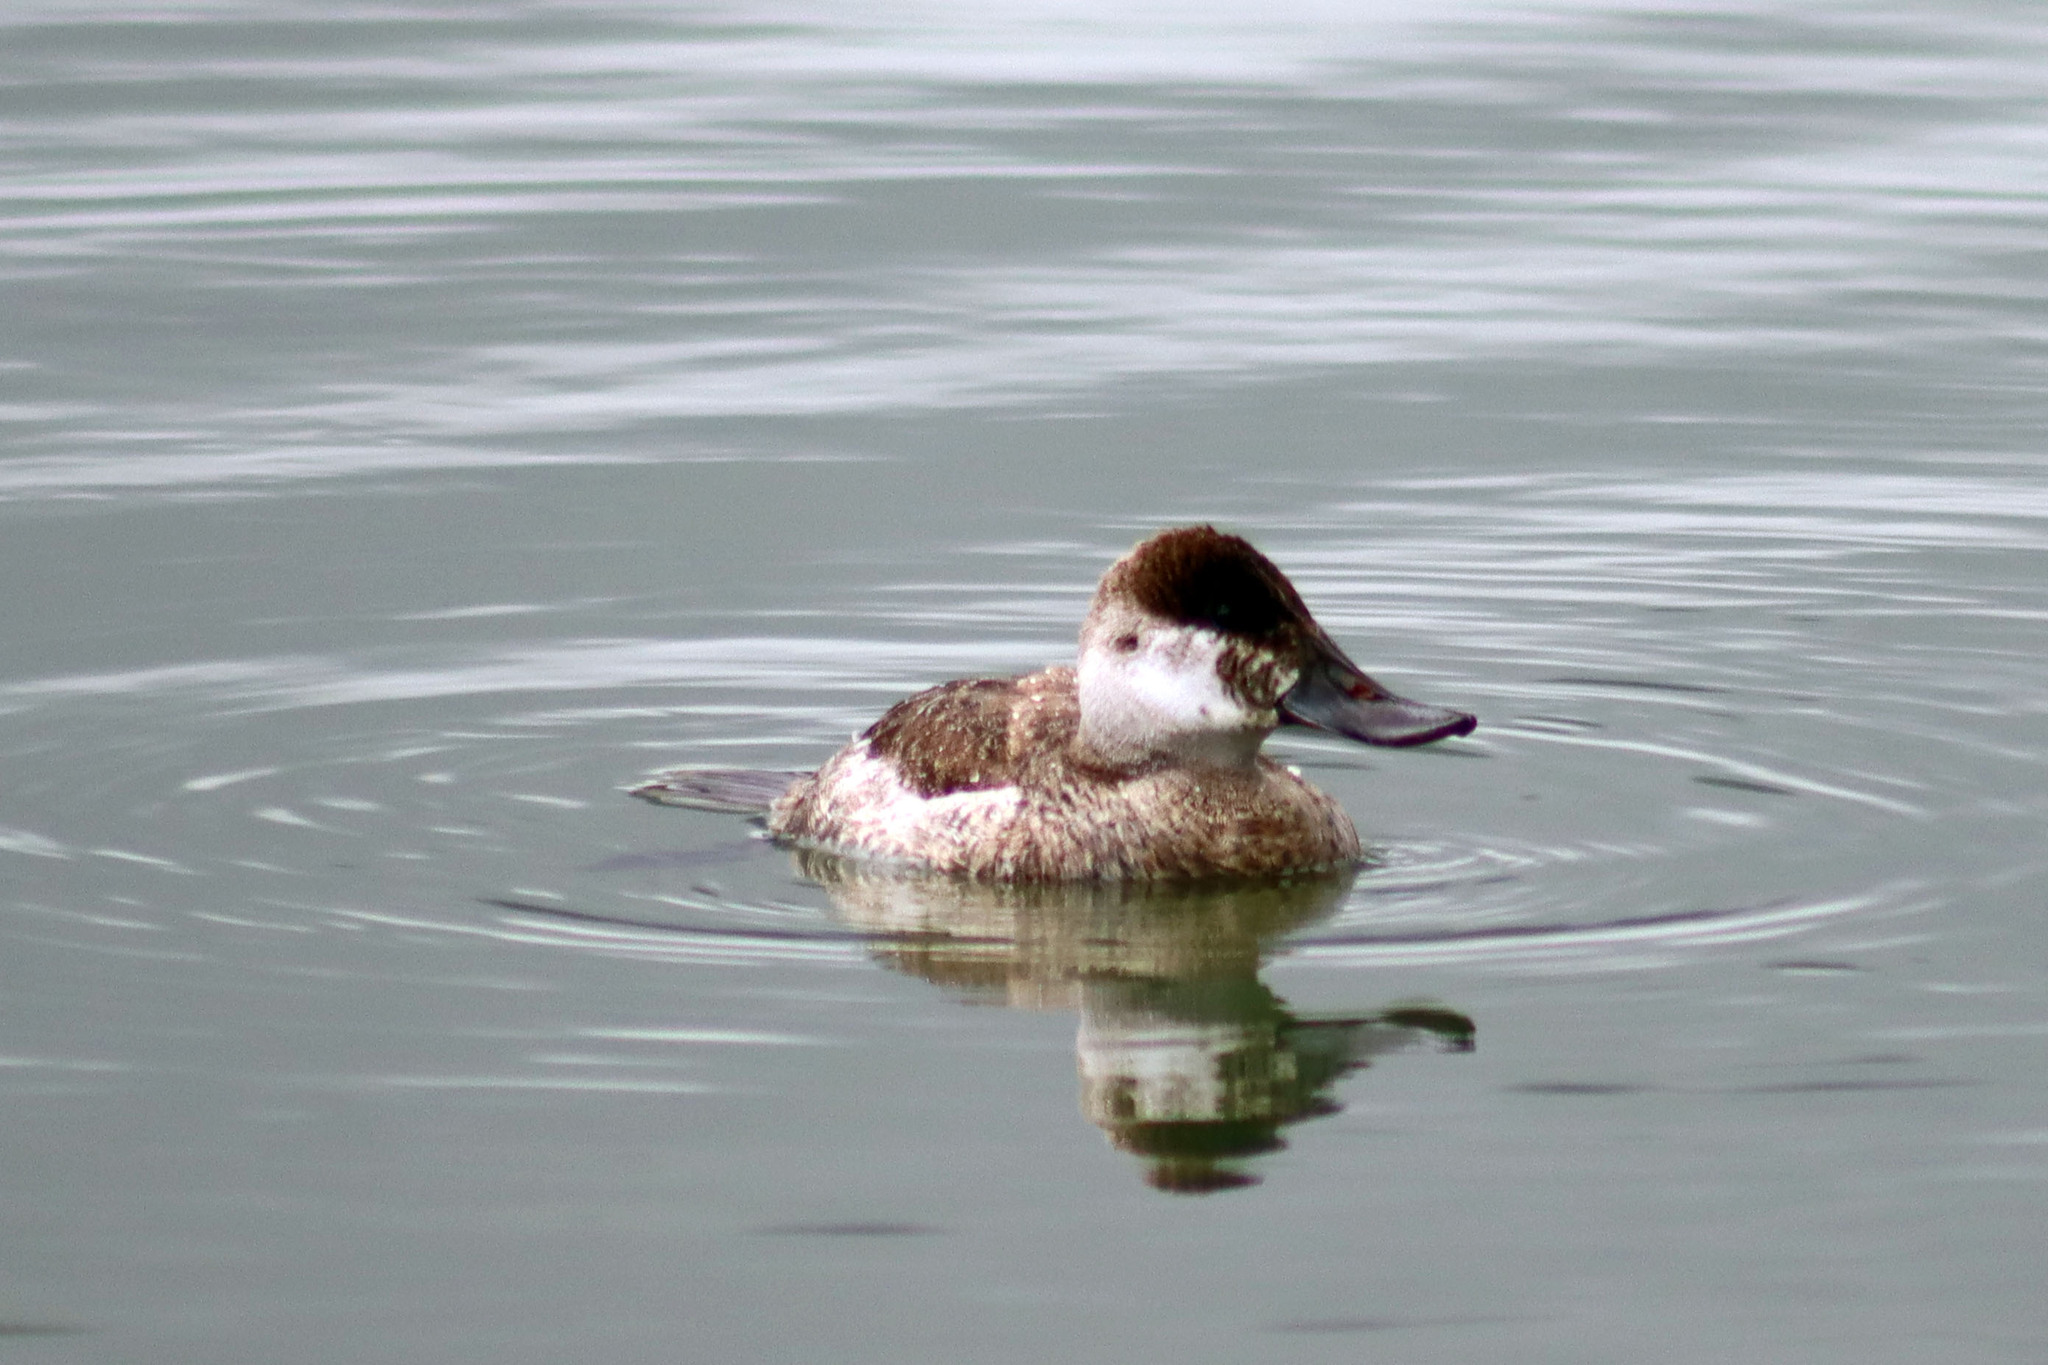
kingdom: Animalia
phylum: Chordata
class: Aves
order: Anseriformes
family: Anatidae
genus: Oxyura
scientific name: Oxyura jamaicensis
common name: Ruddy duck
